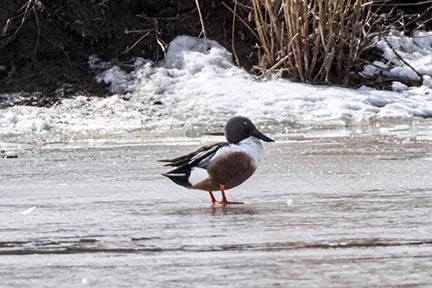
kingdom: Animalia
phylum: Chordata
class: Aves
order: Anseriformes
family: Anatidae
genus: Spatula
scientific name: Spatula clypeata
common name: Northern shoveler
